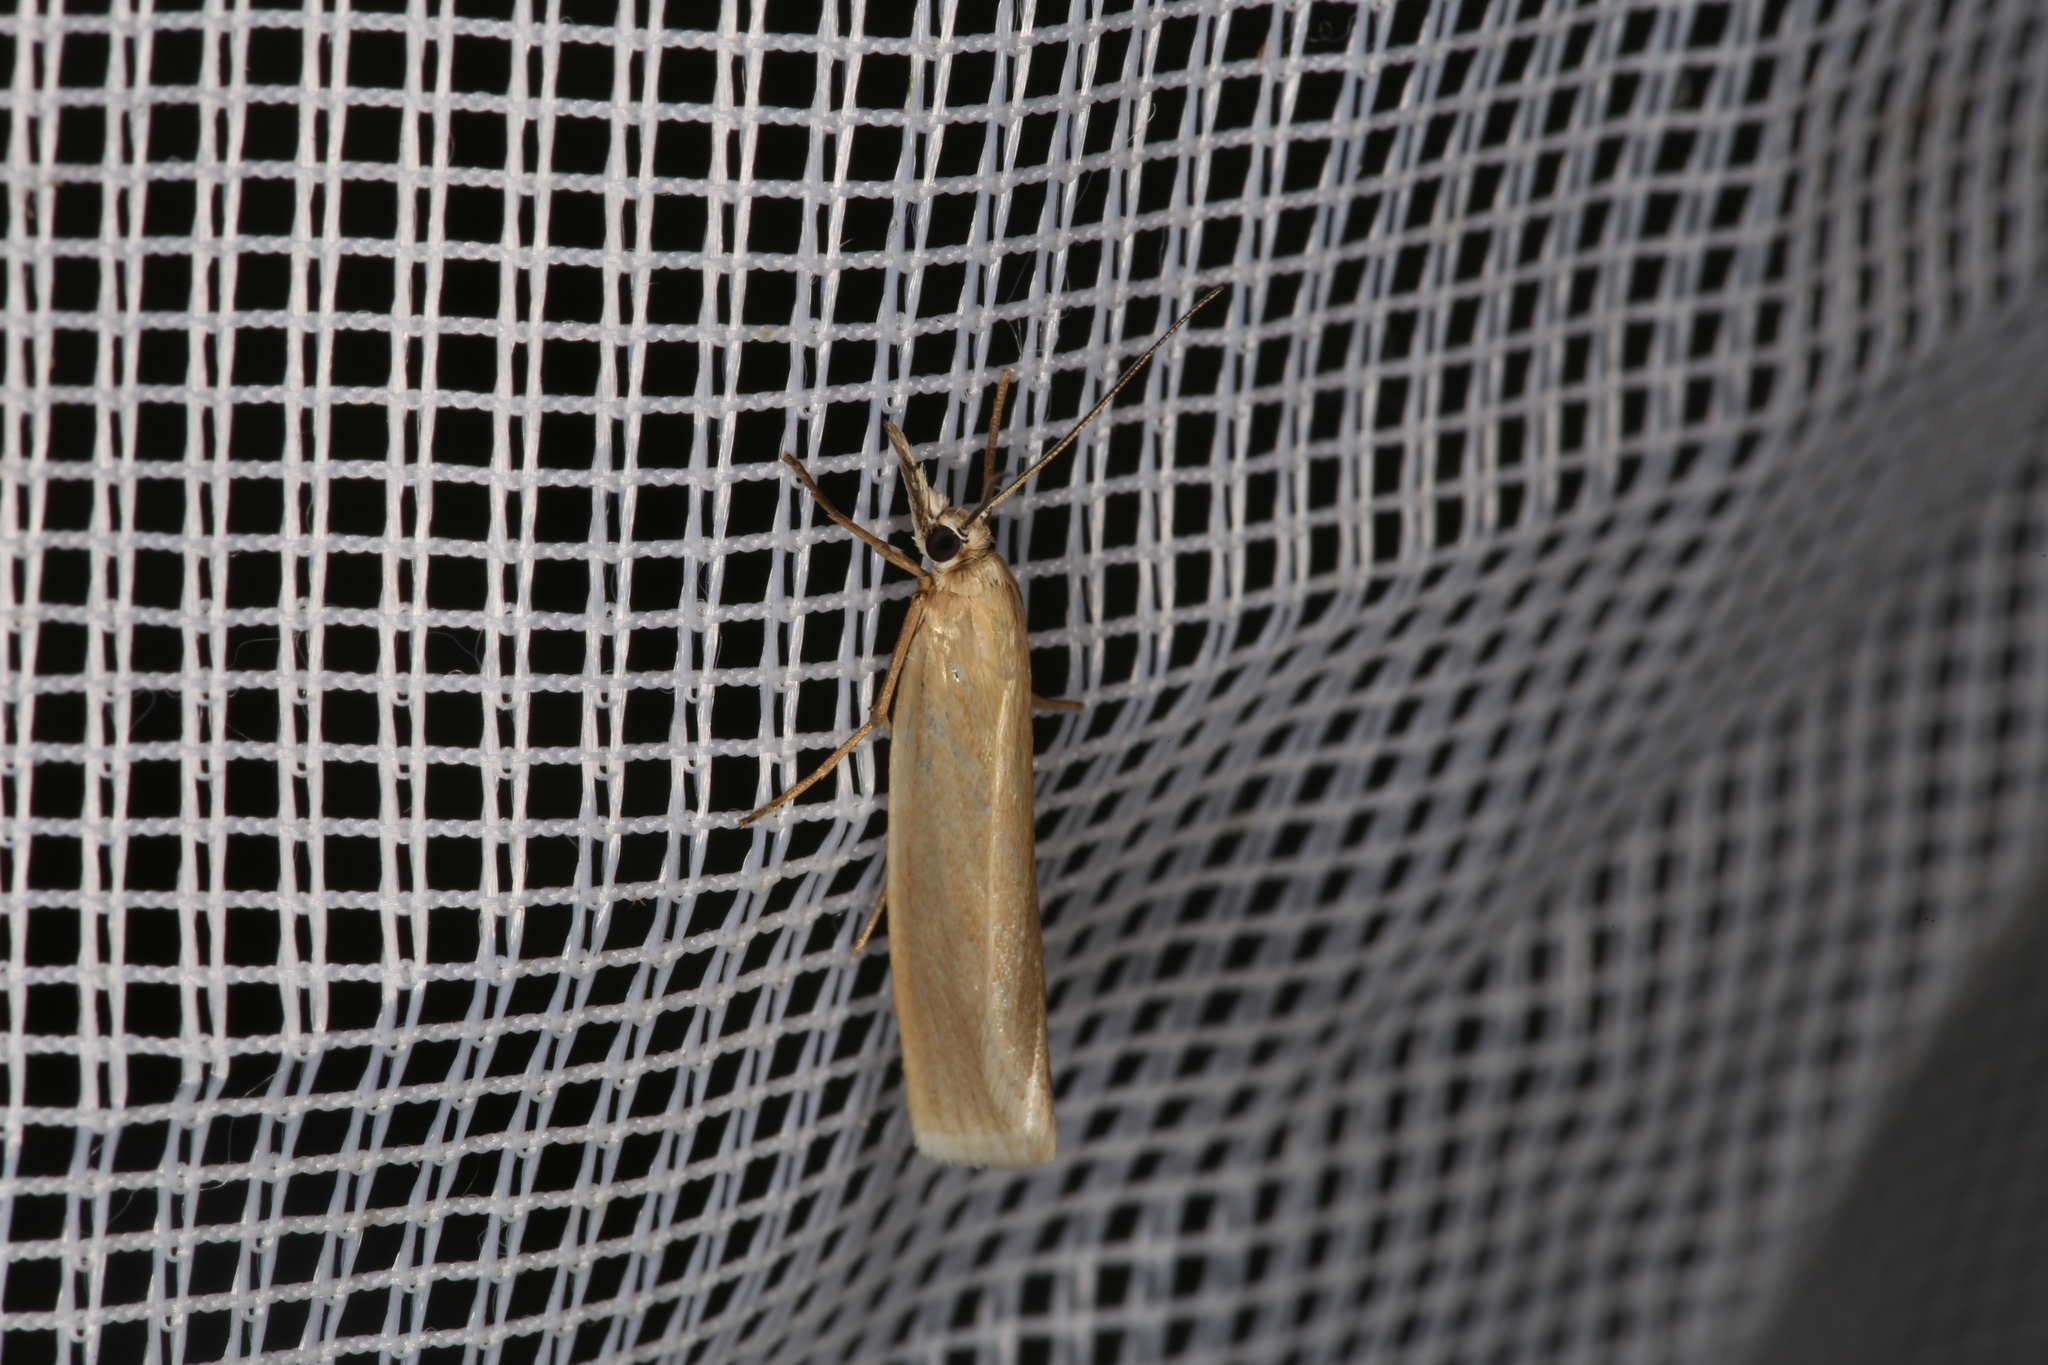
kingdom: Animalia
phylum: Arthropoda
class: Insecta
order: Lepidoptera
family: Crambidae
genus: Crambus
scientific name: Crambus perlellus
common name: Yellow satin veneer
